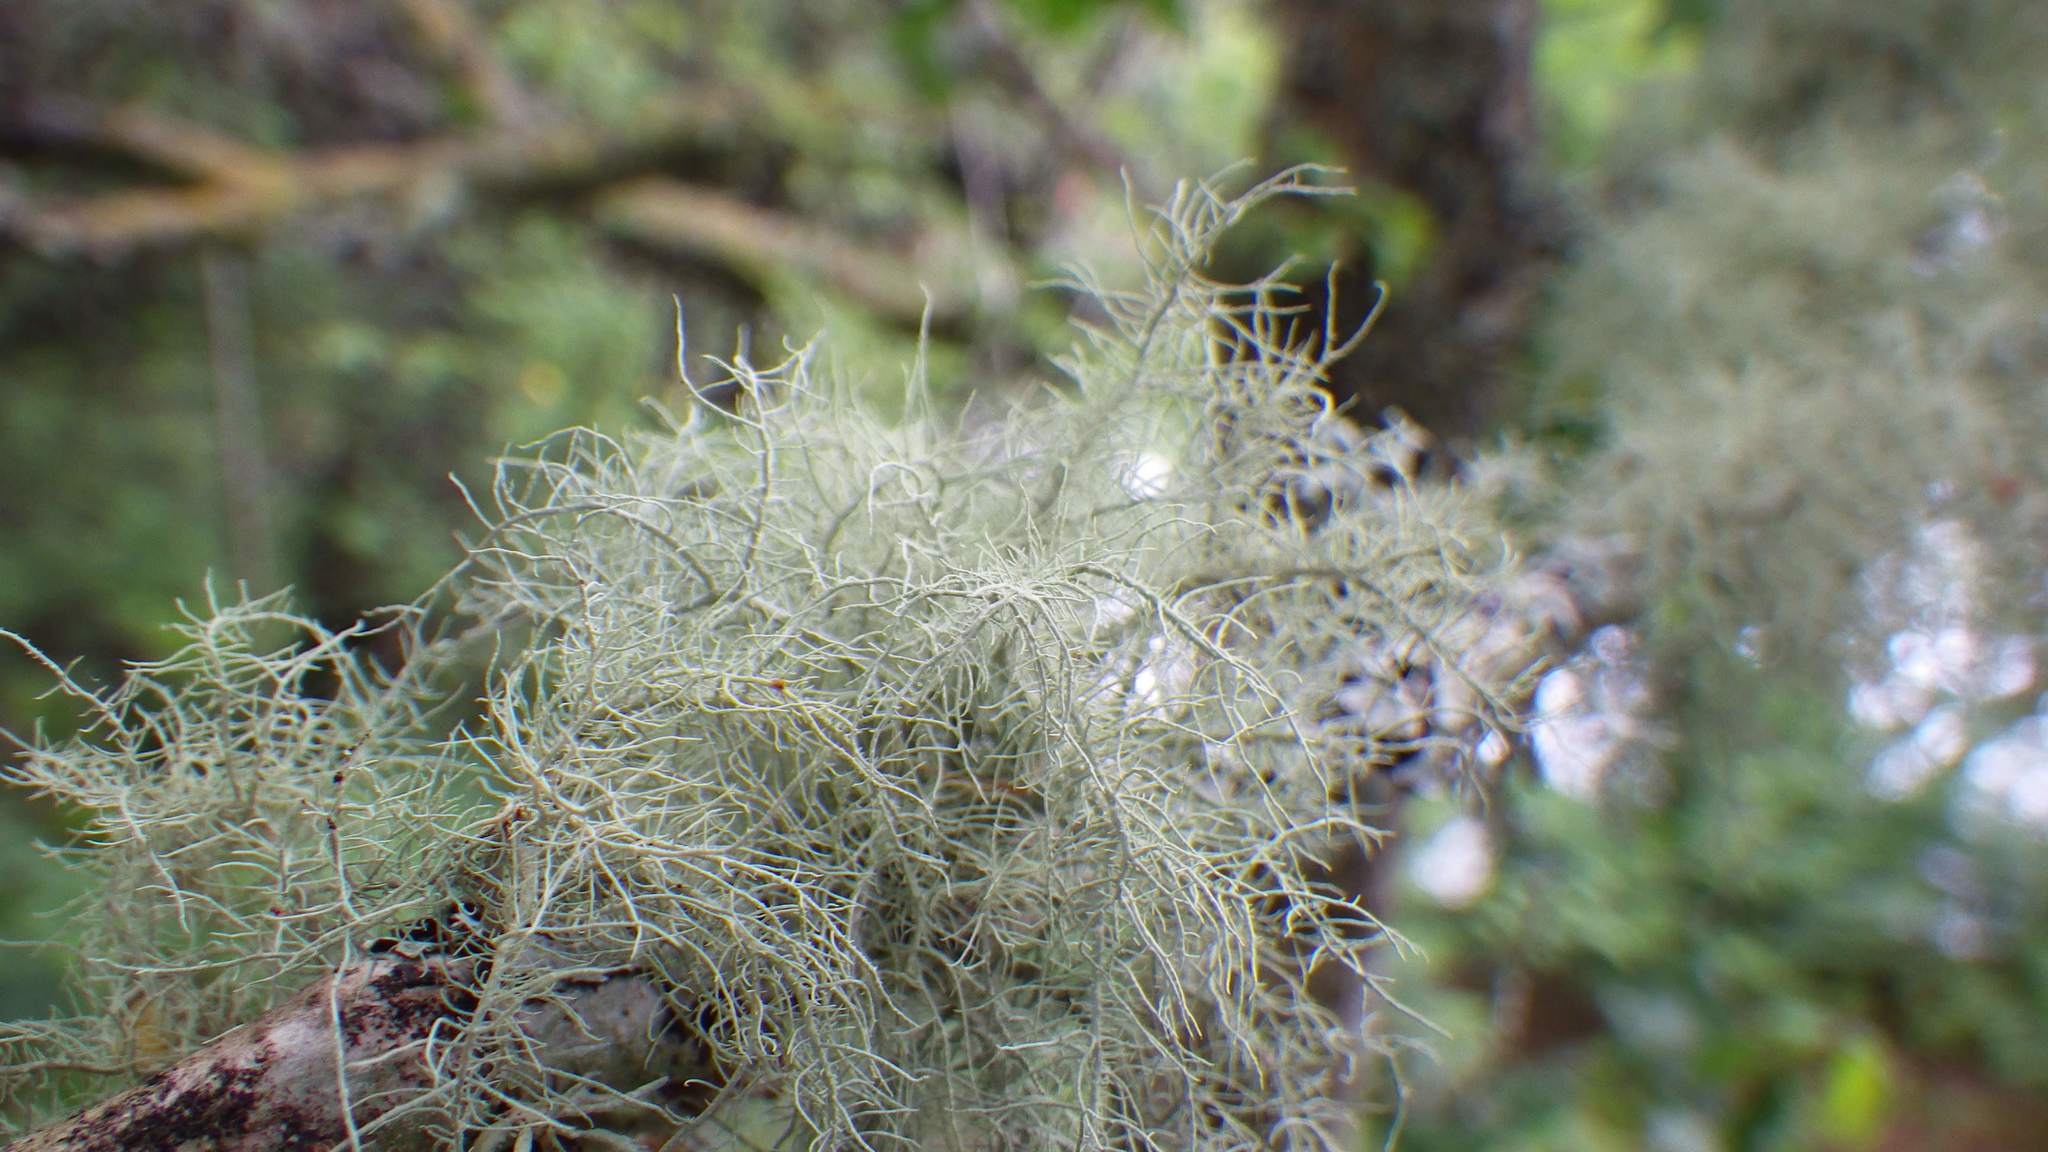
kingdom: Fungi
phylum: Ascomycota
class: Lecanoromycetes
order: Lecanorales
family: Parmeliaceae
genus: Usnea
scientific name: Usnea
